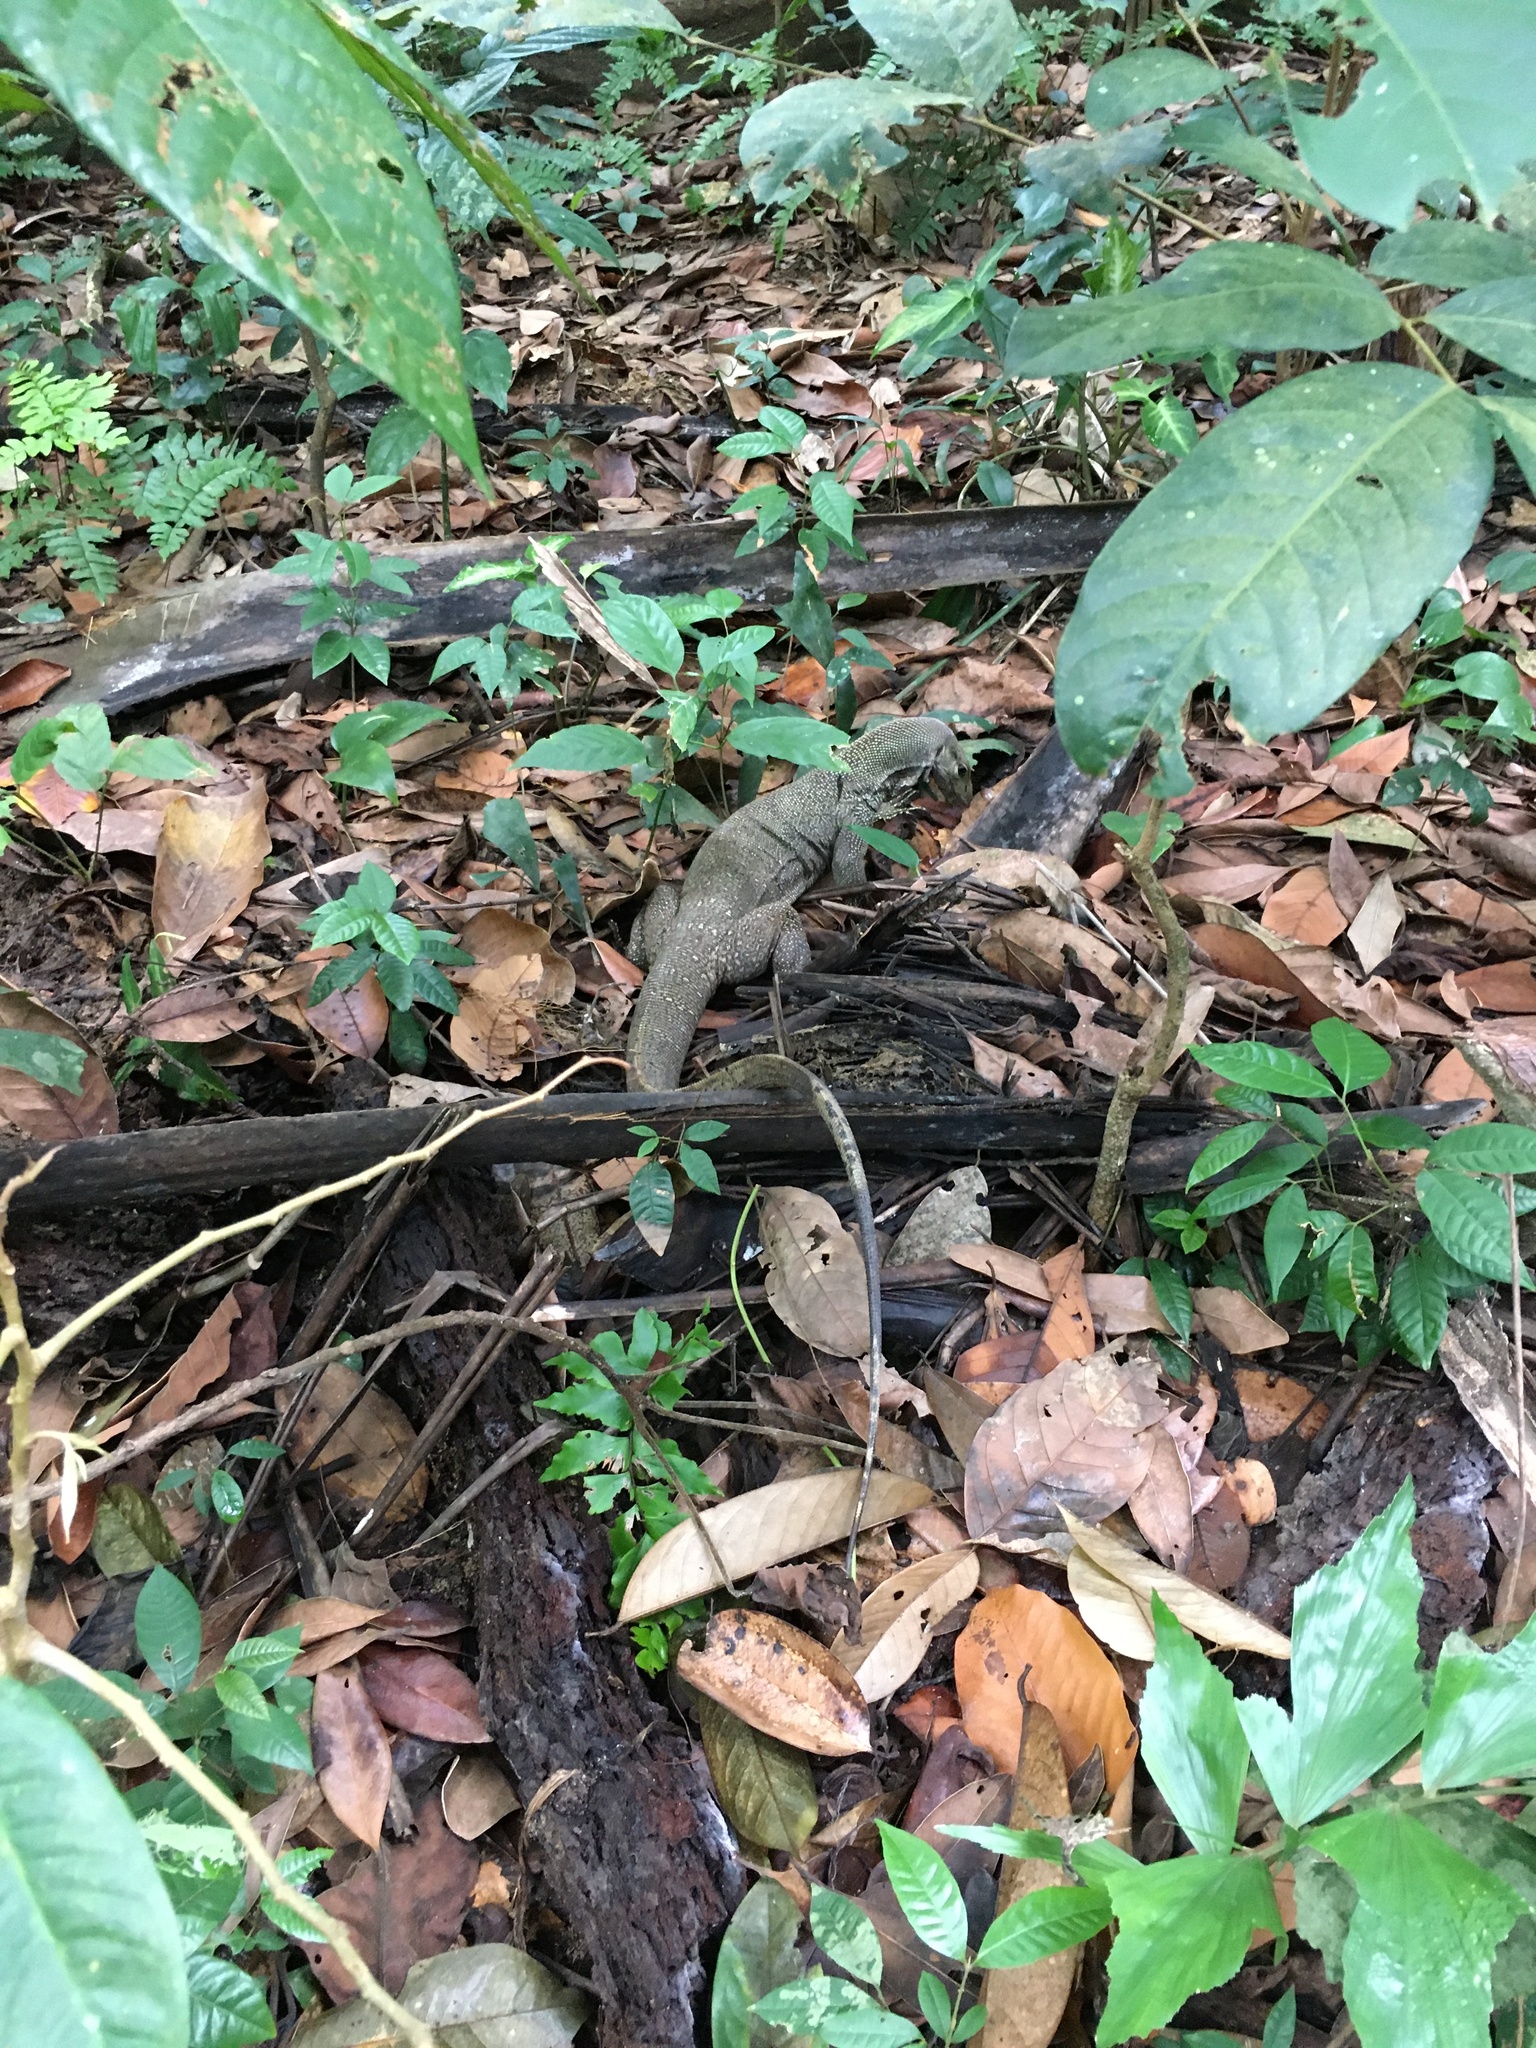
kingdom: Animalia
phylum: Chordata
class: Squamata
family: Varanidae
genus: Varanus
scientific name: Varanus nebulosus
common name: Clouded monitor
